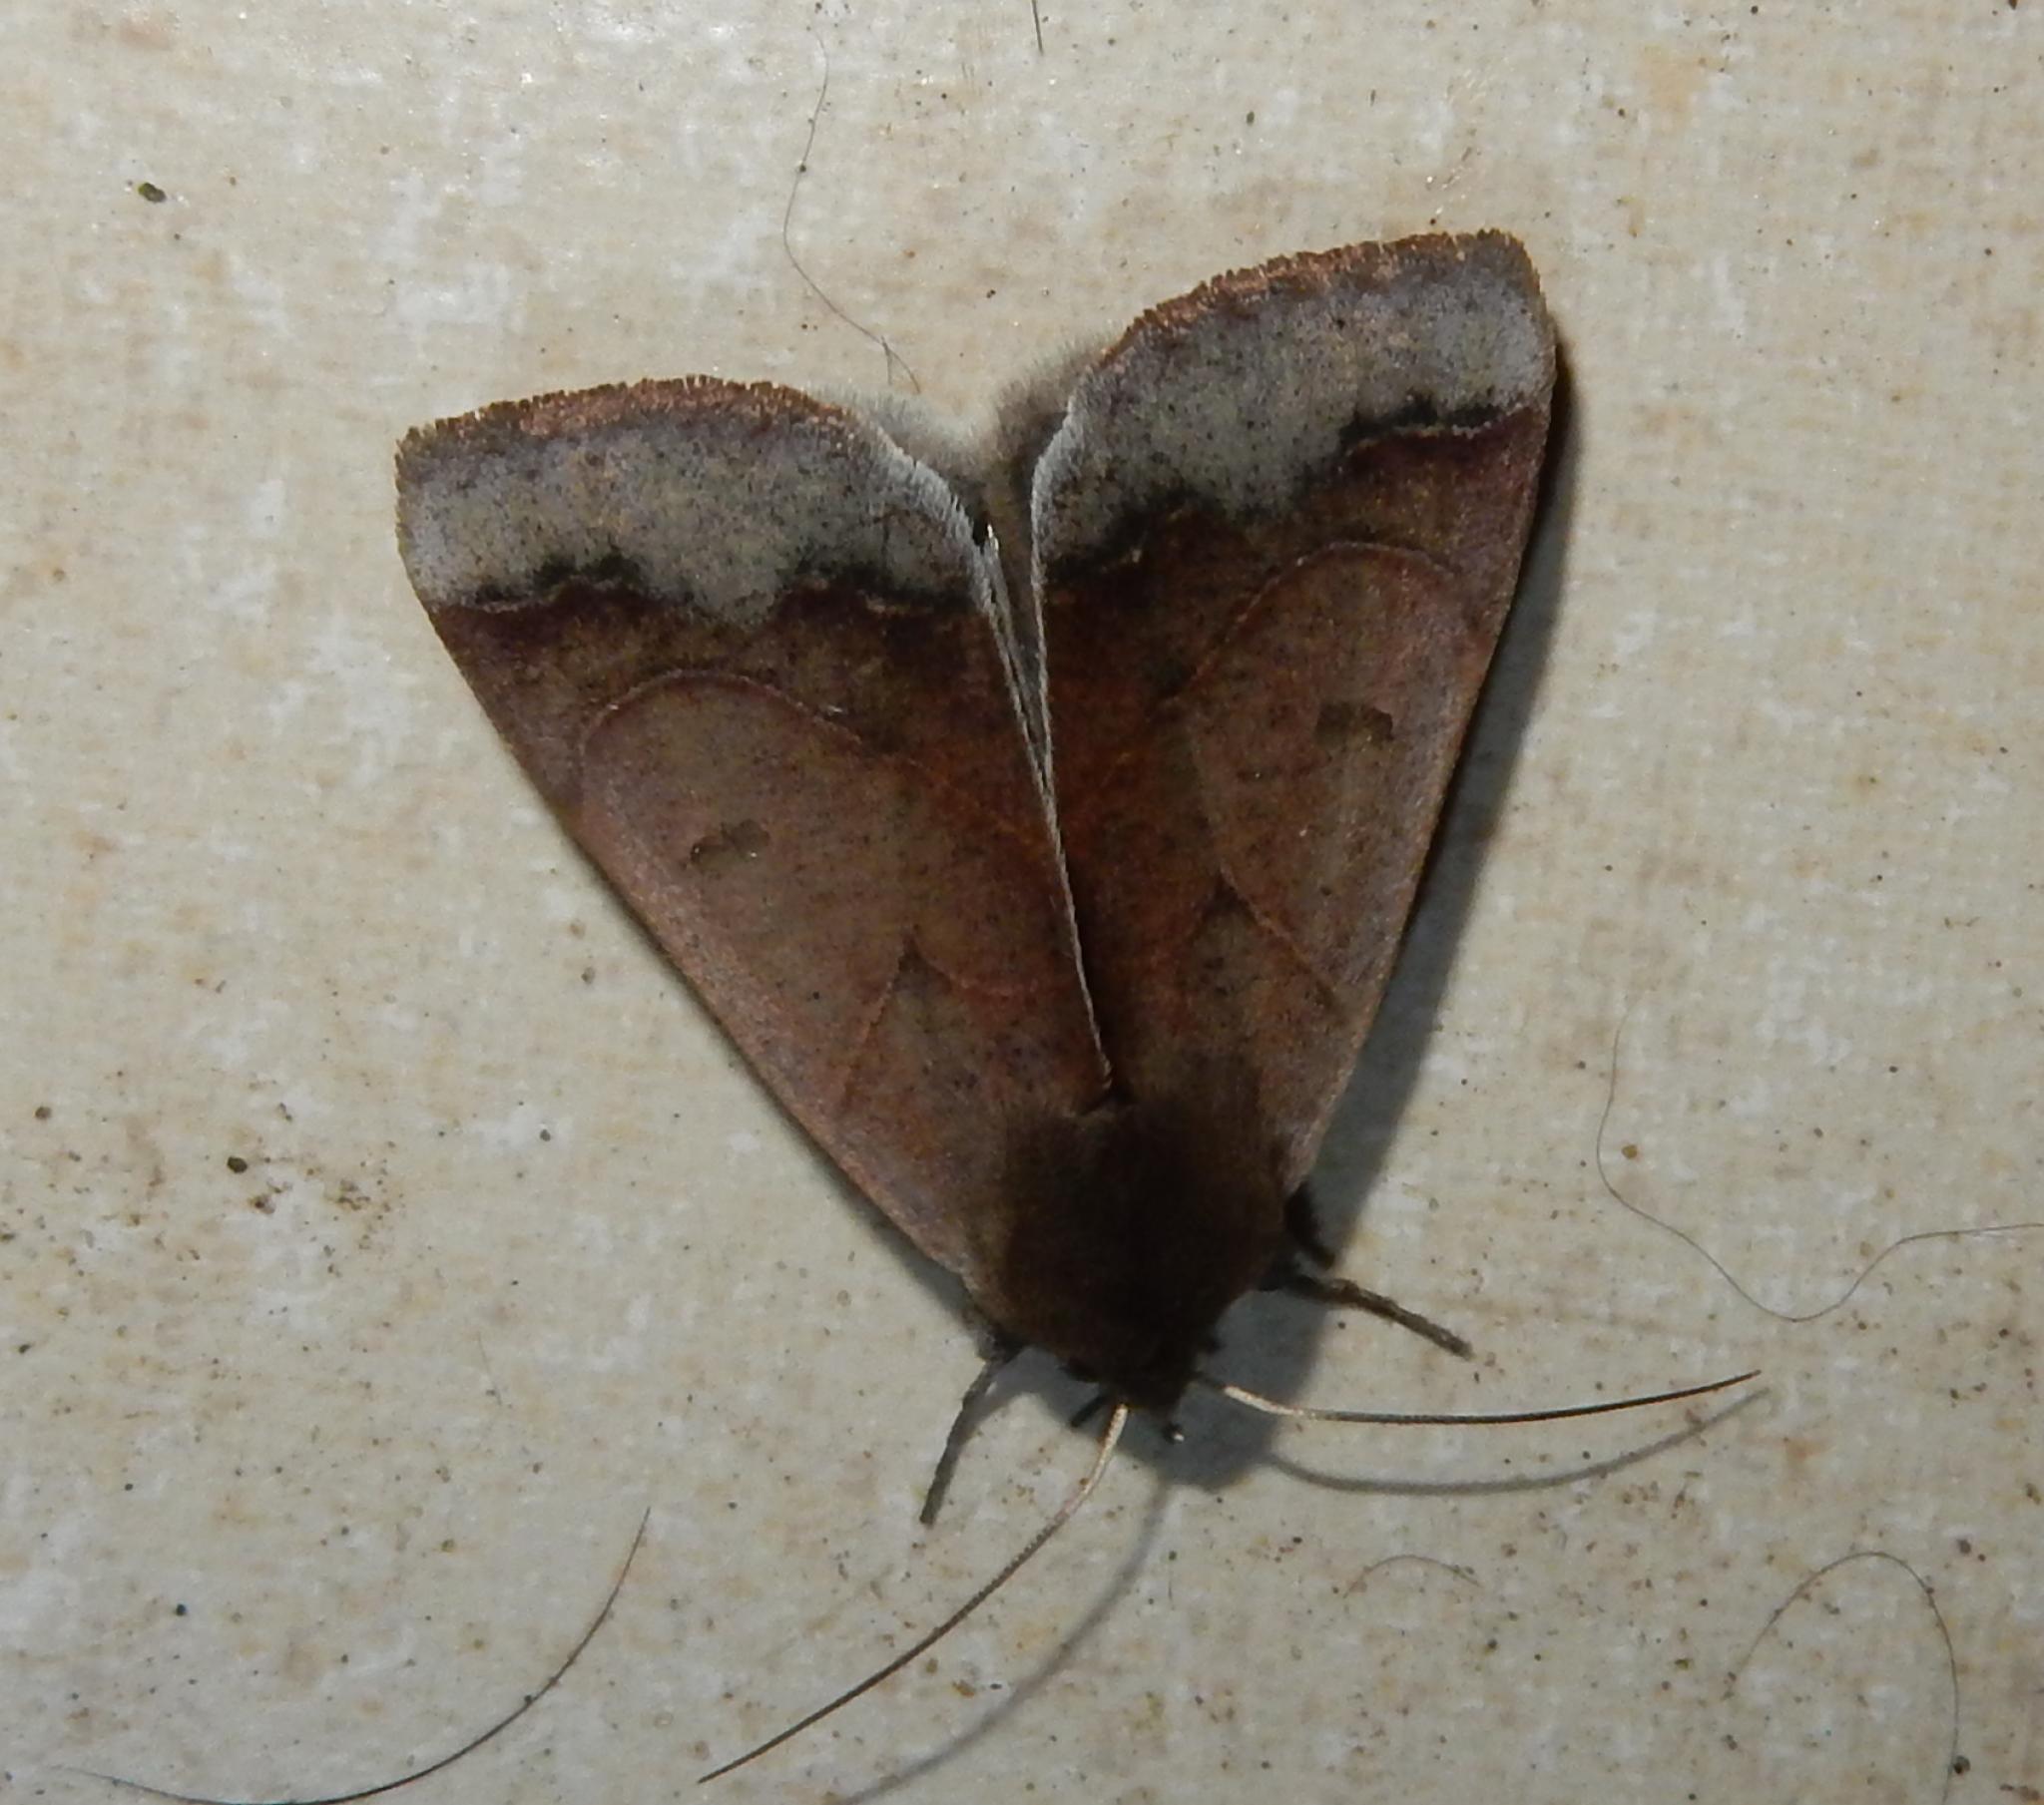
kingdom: Animalia
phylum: Arthropoda
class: Insecta
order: Lepidoptera
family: Erebidae
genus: Ophiusa
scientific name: Ophiusa selenaris
